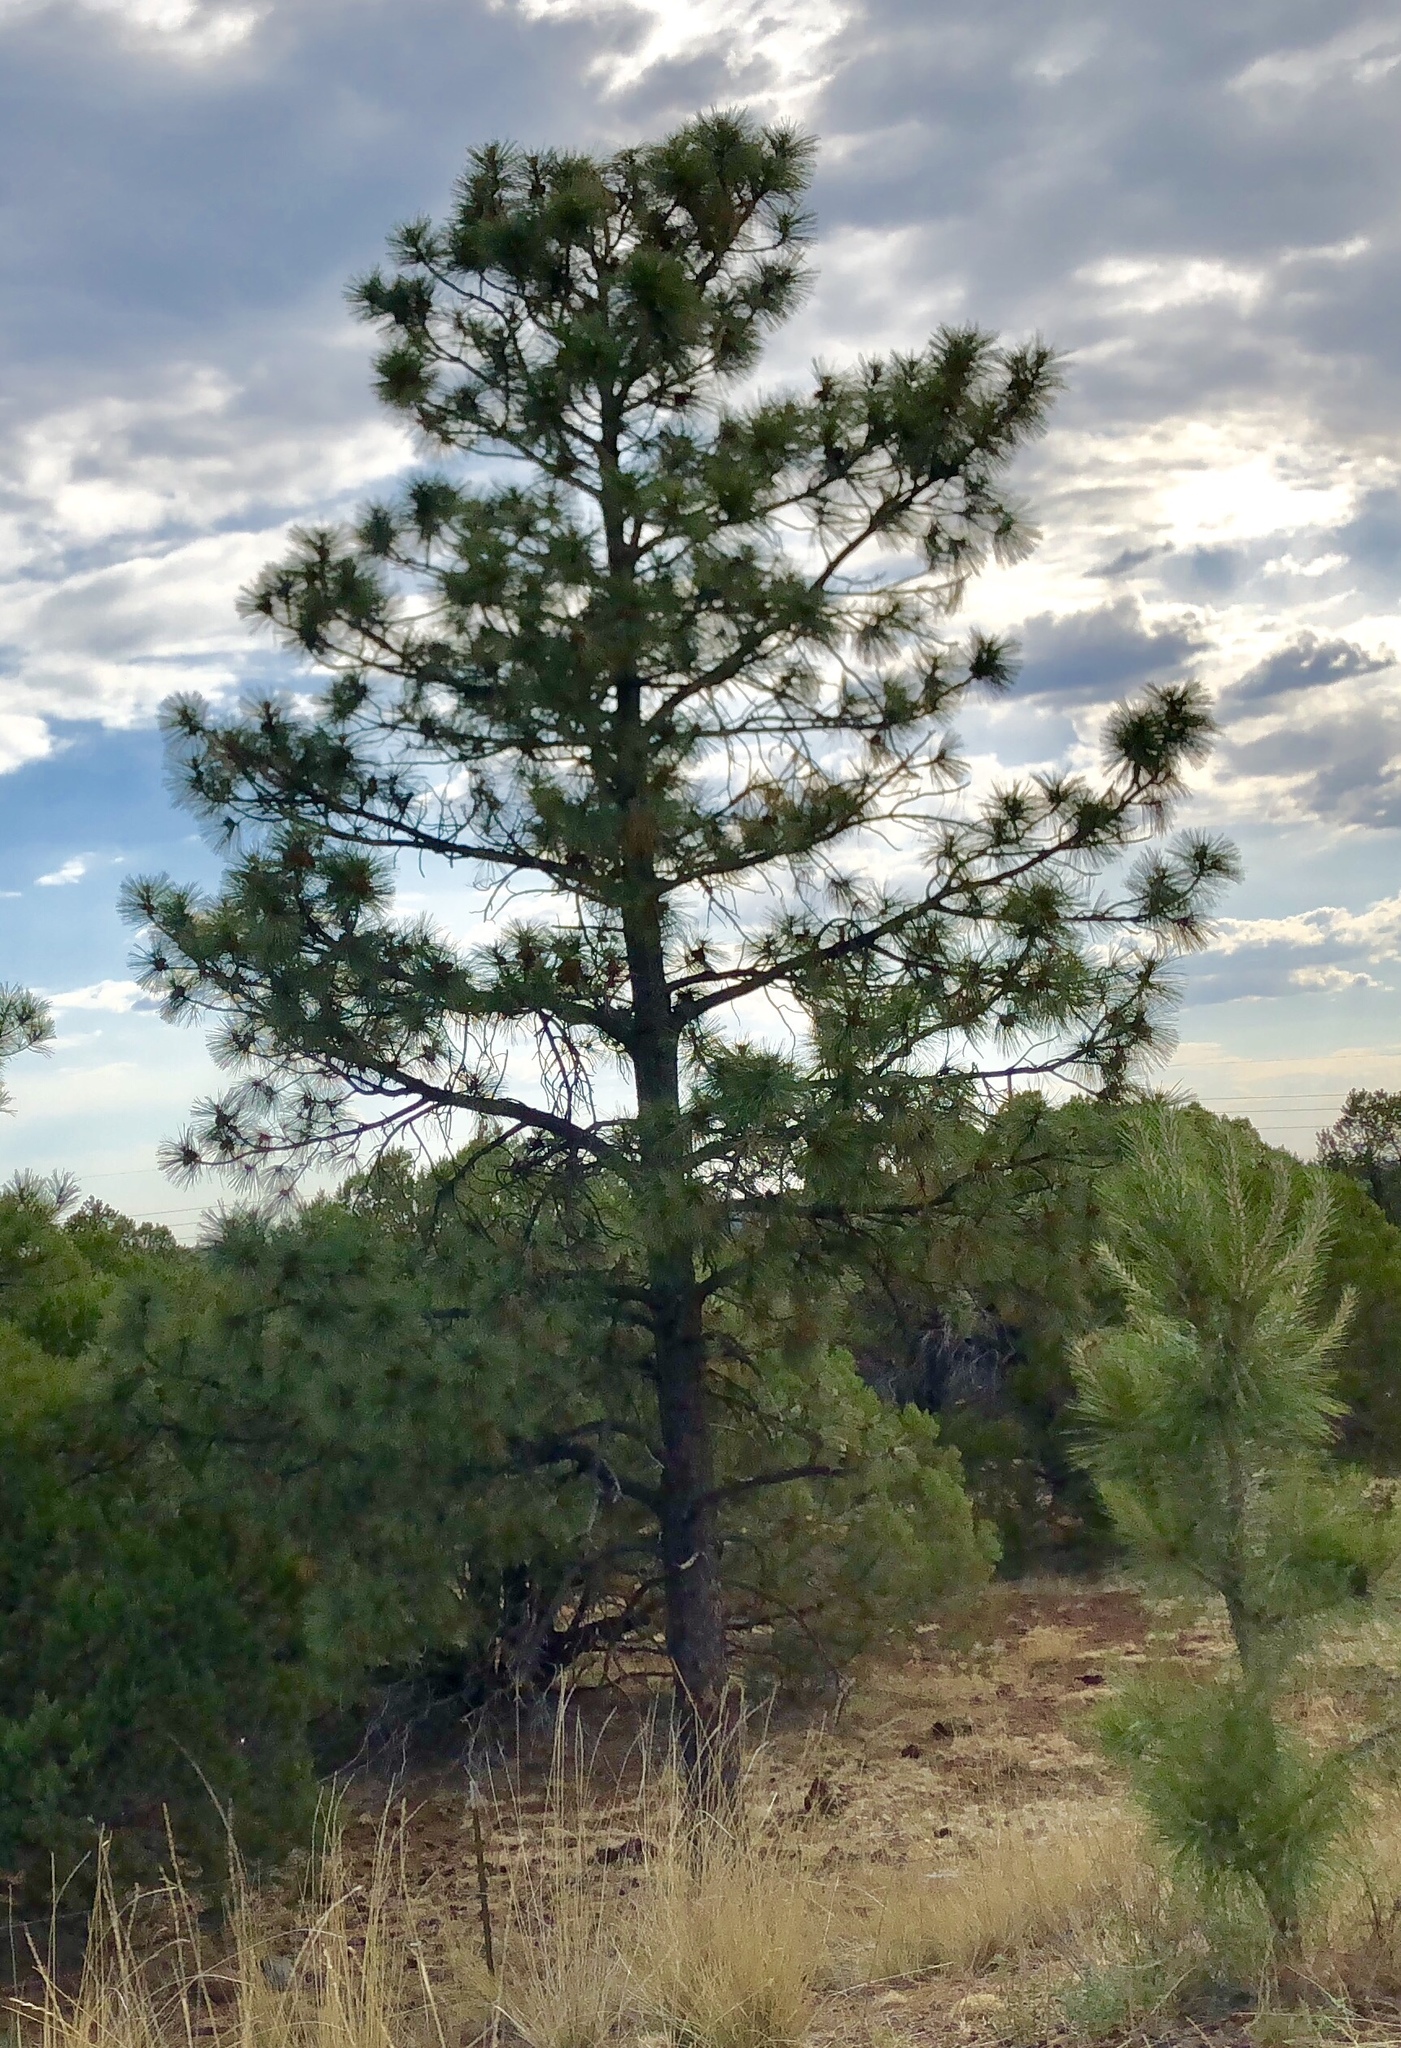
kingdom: Plantae
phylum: Tracheophyta
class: Pinopsida
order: Pinales
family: Pinaceae
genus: Pinus
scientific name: Pinus ponderosa
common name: Western yellow-pine
